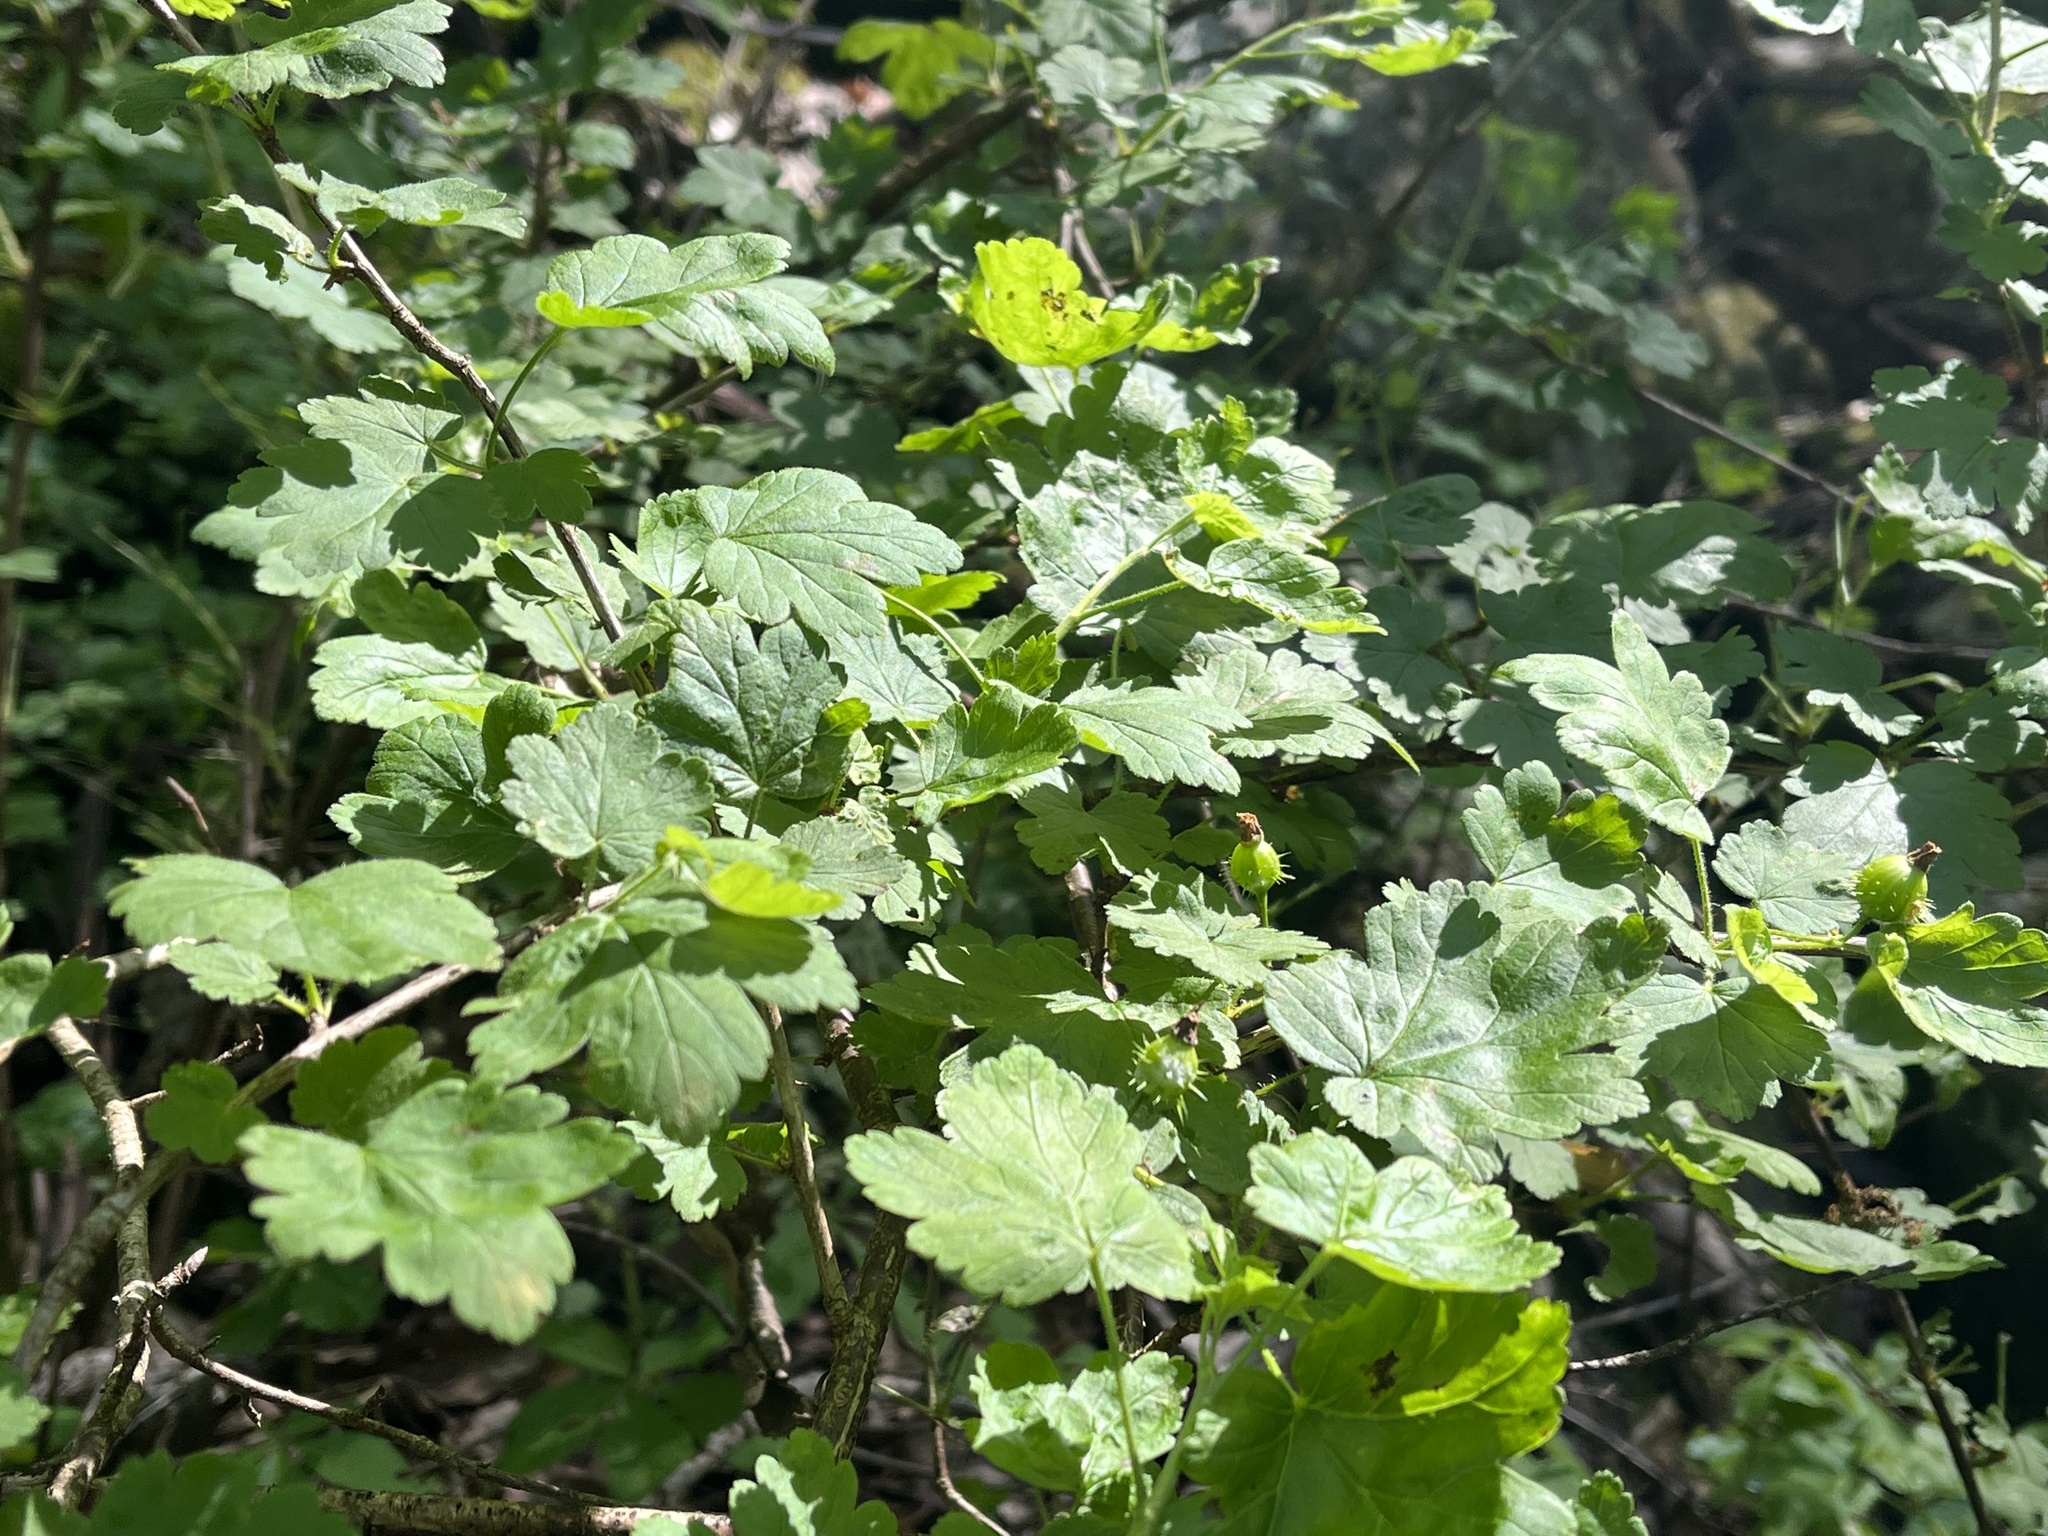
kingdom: Plantae
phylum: Tracheophyta
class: Magnoliopsida
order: Saxifragales
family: Grossulariaceae
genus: Ribes
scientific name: Ribes cynosbati
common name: American gooseberry
